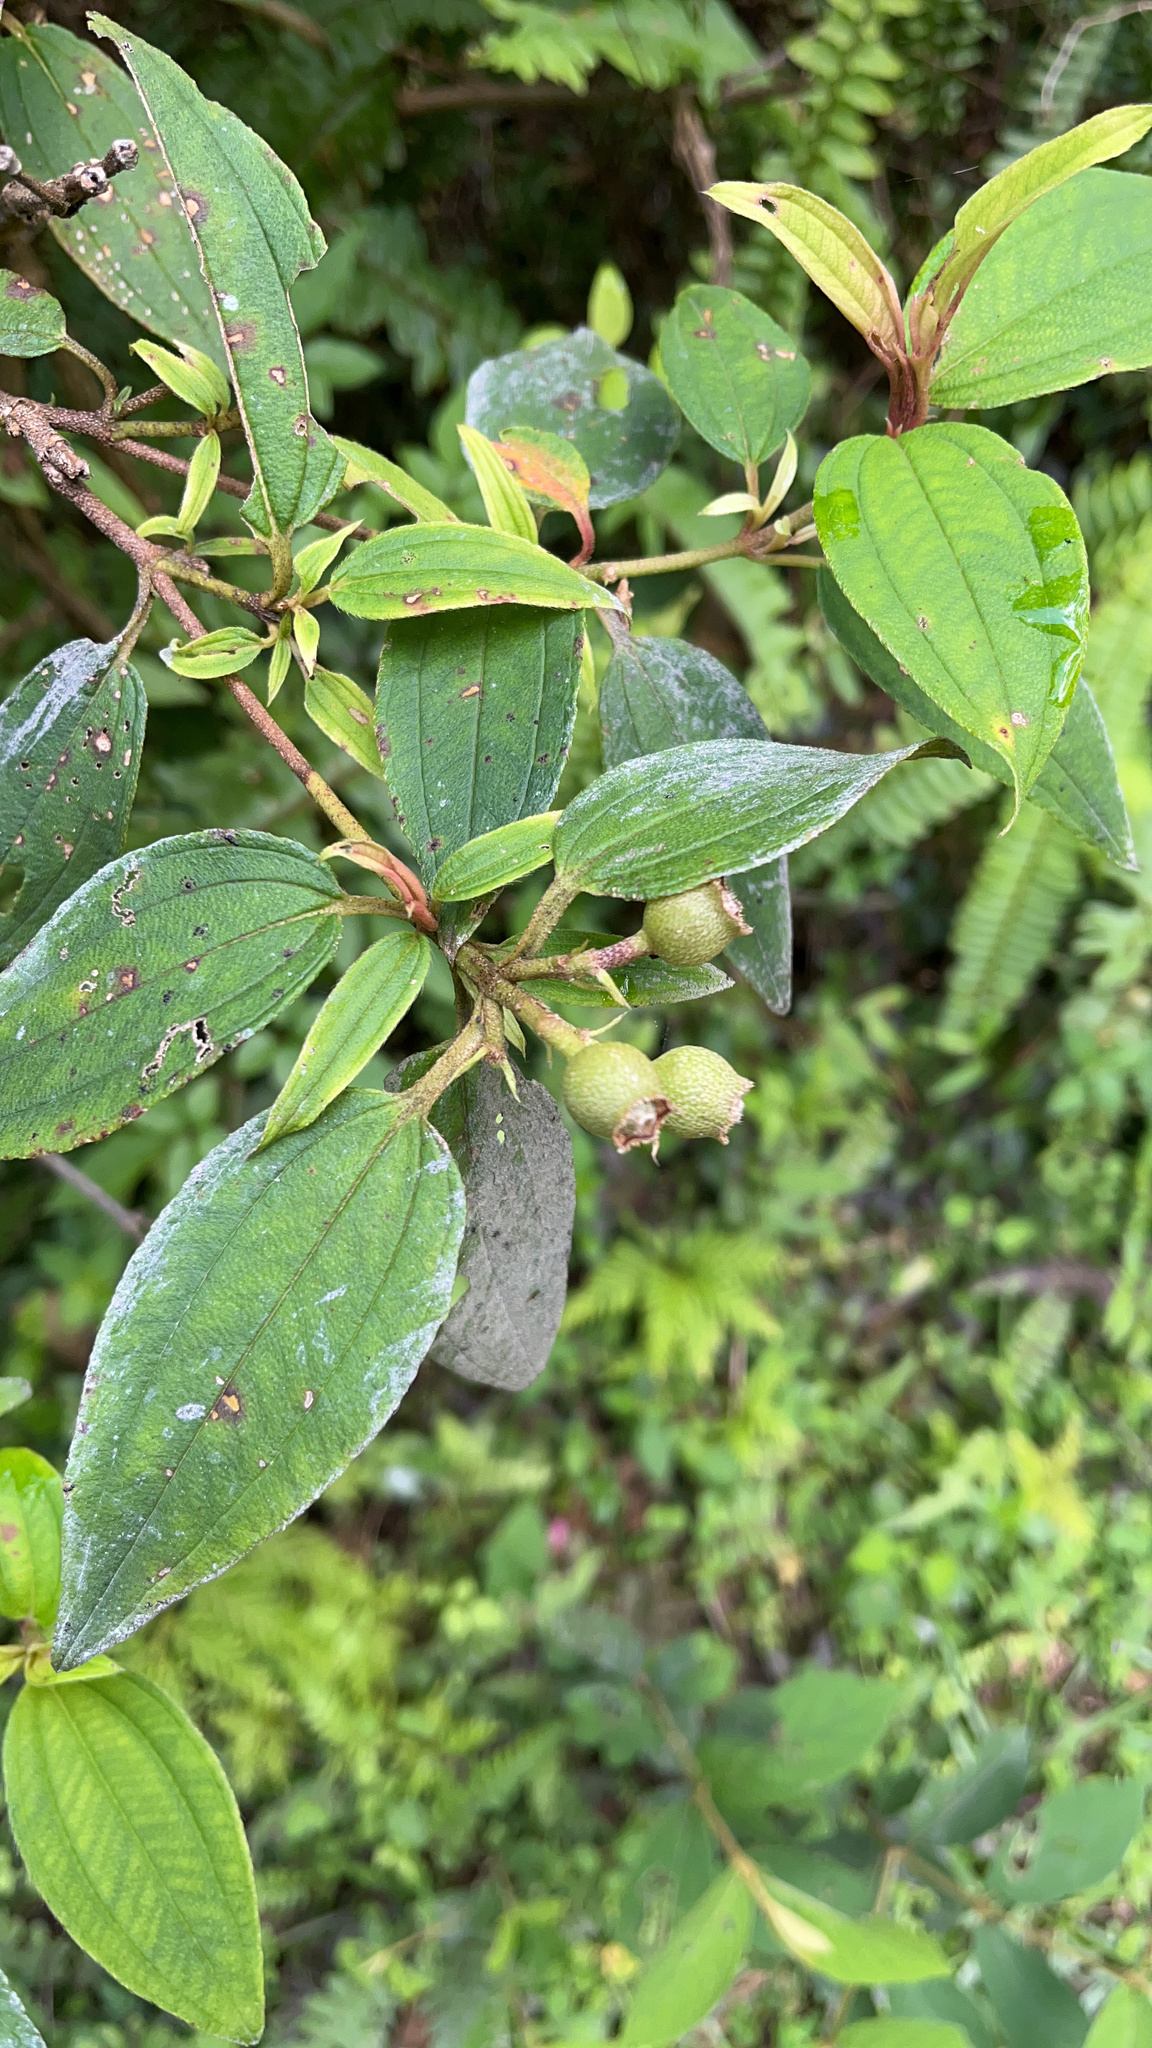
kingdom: Plantae
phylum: Tracheophyta
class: Magnoliopsida
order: Myrtales
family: Melastomataceae
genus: Melastoma
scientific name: Melastoma malabathricum
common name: Indian-rhododendron
